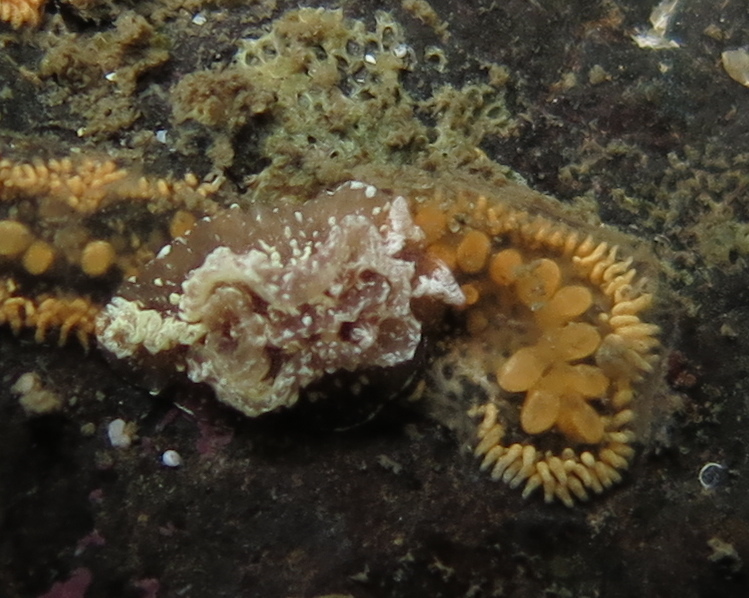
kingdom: Animalia
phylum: Mollusca
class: Gastropoda
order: Nudibranchia
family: Goniodorididae
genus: Pelagella
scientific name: Pelagella castanea
